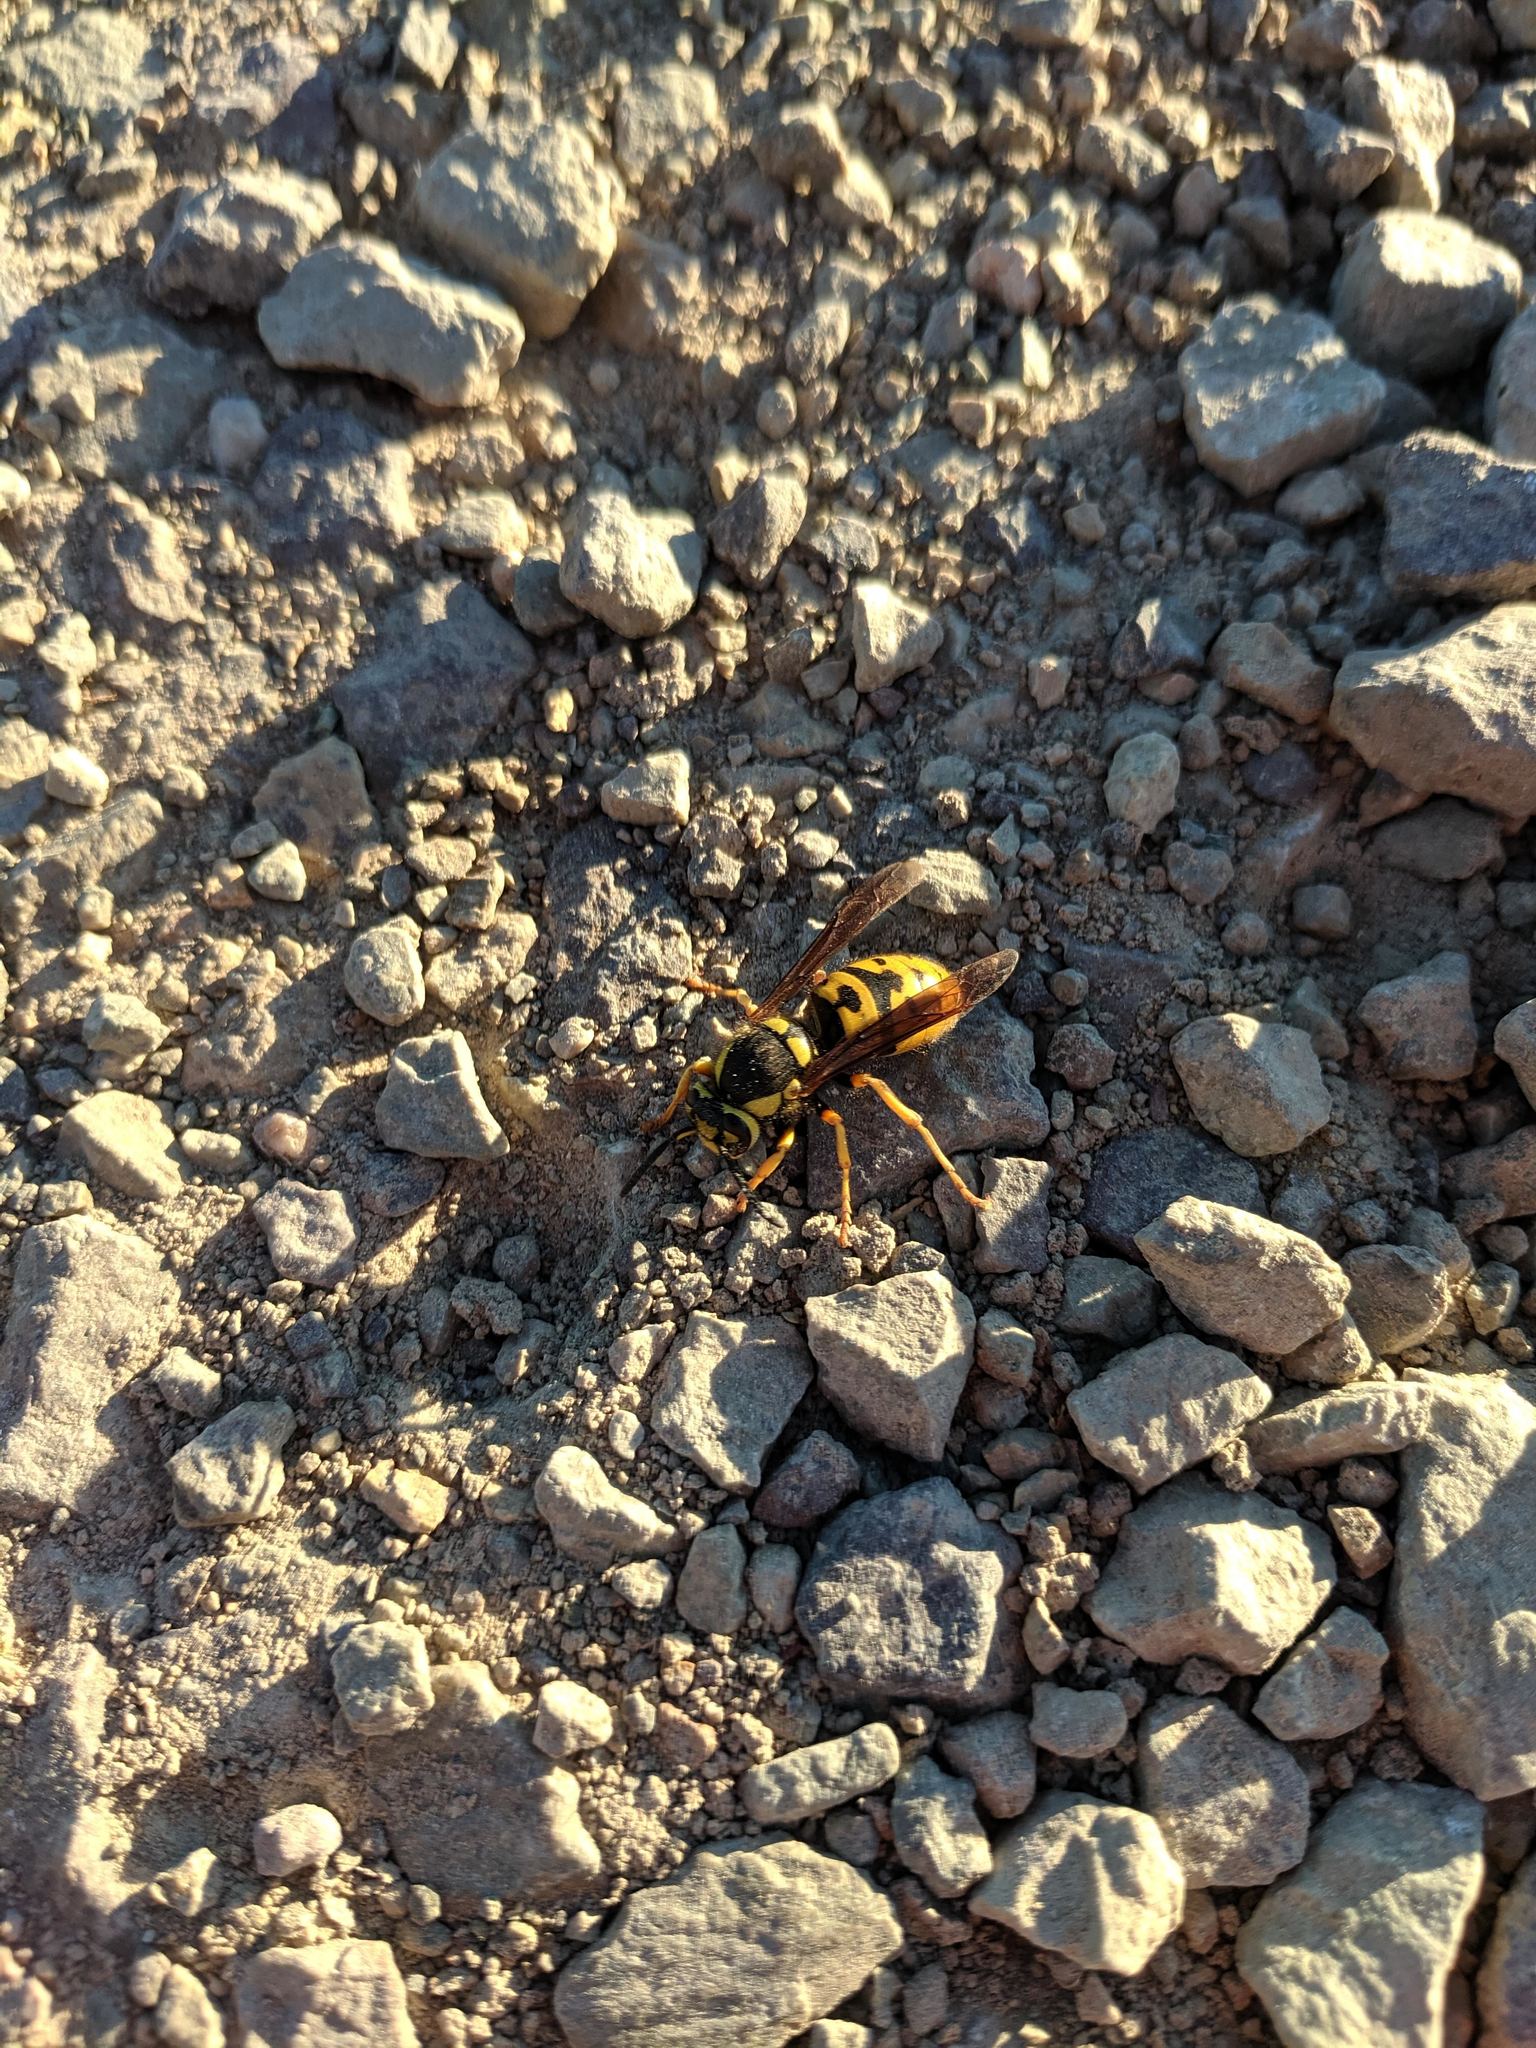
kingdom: Animalia
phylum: Arthropoda
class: Insecta
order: Hymenoptera
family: Vespidae
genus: Vespula
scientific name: Vespula atropilosa
